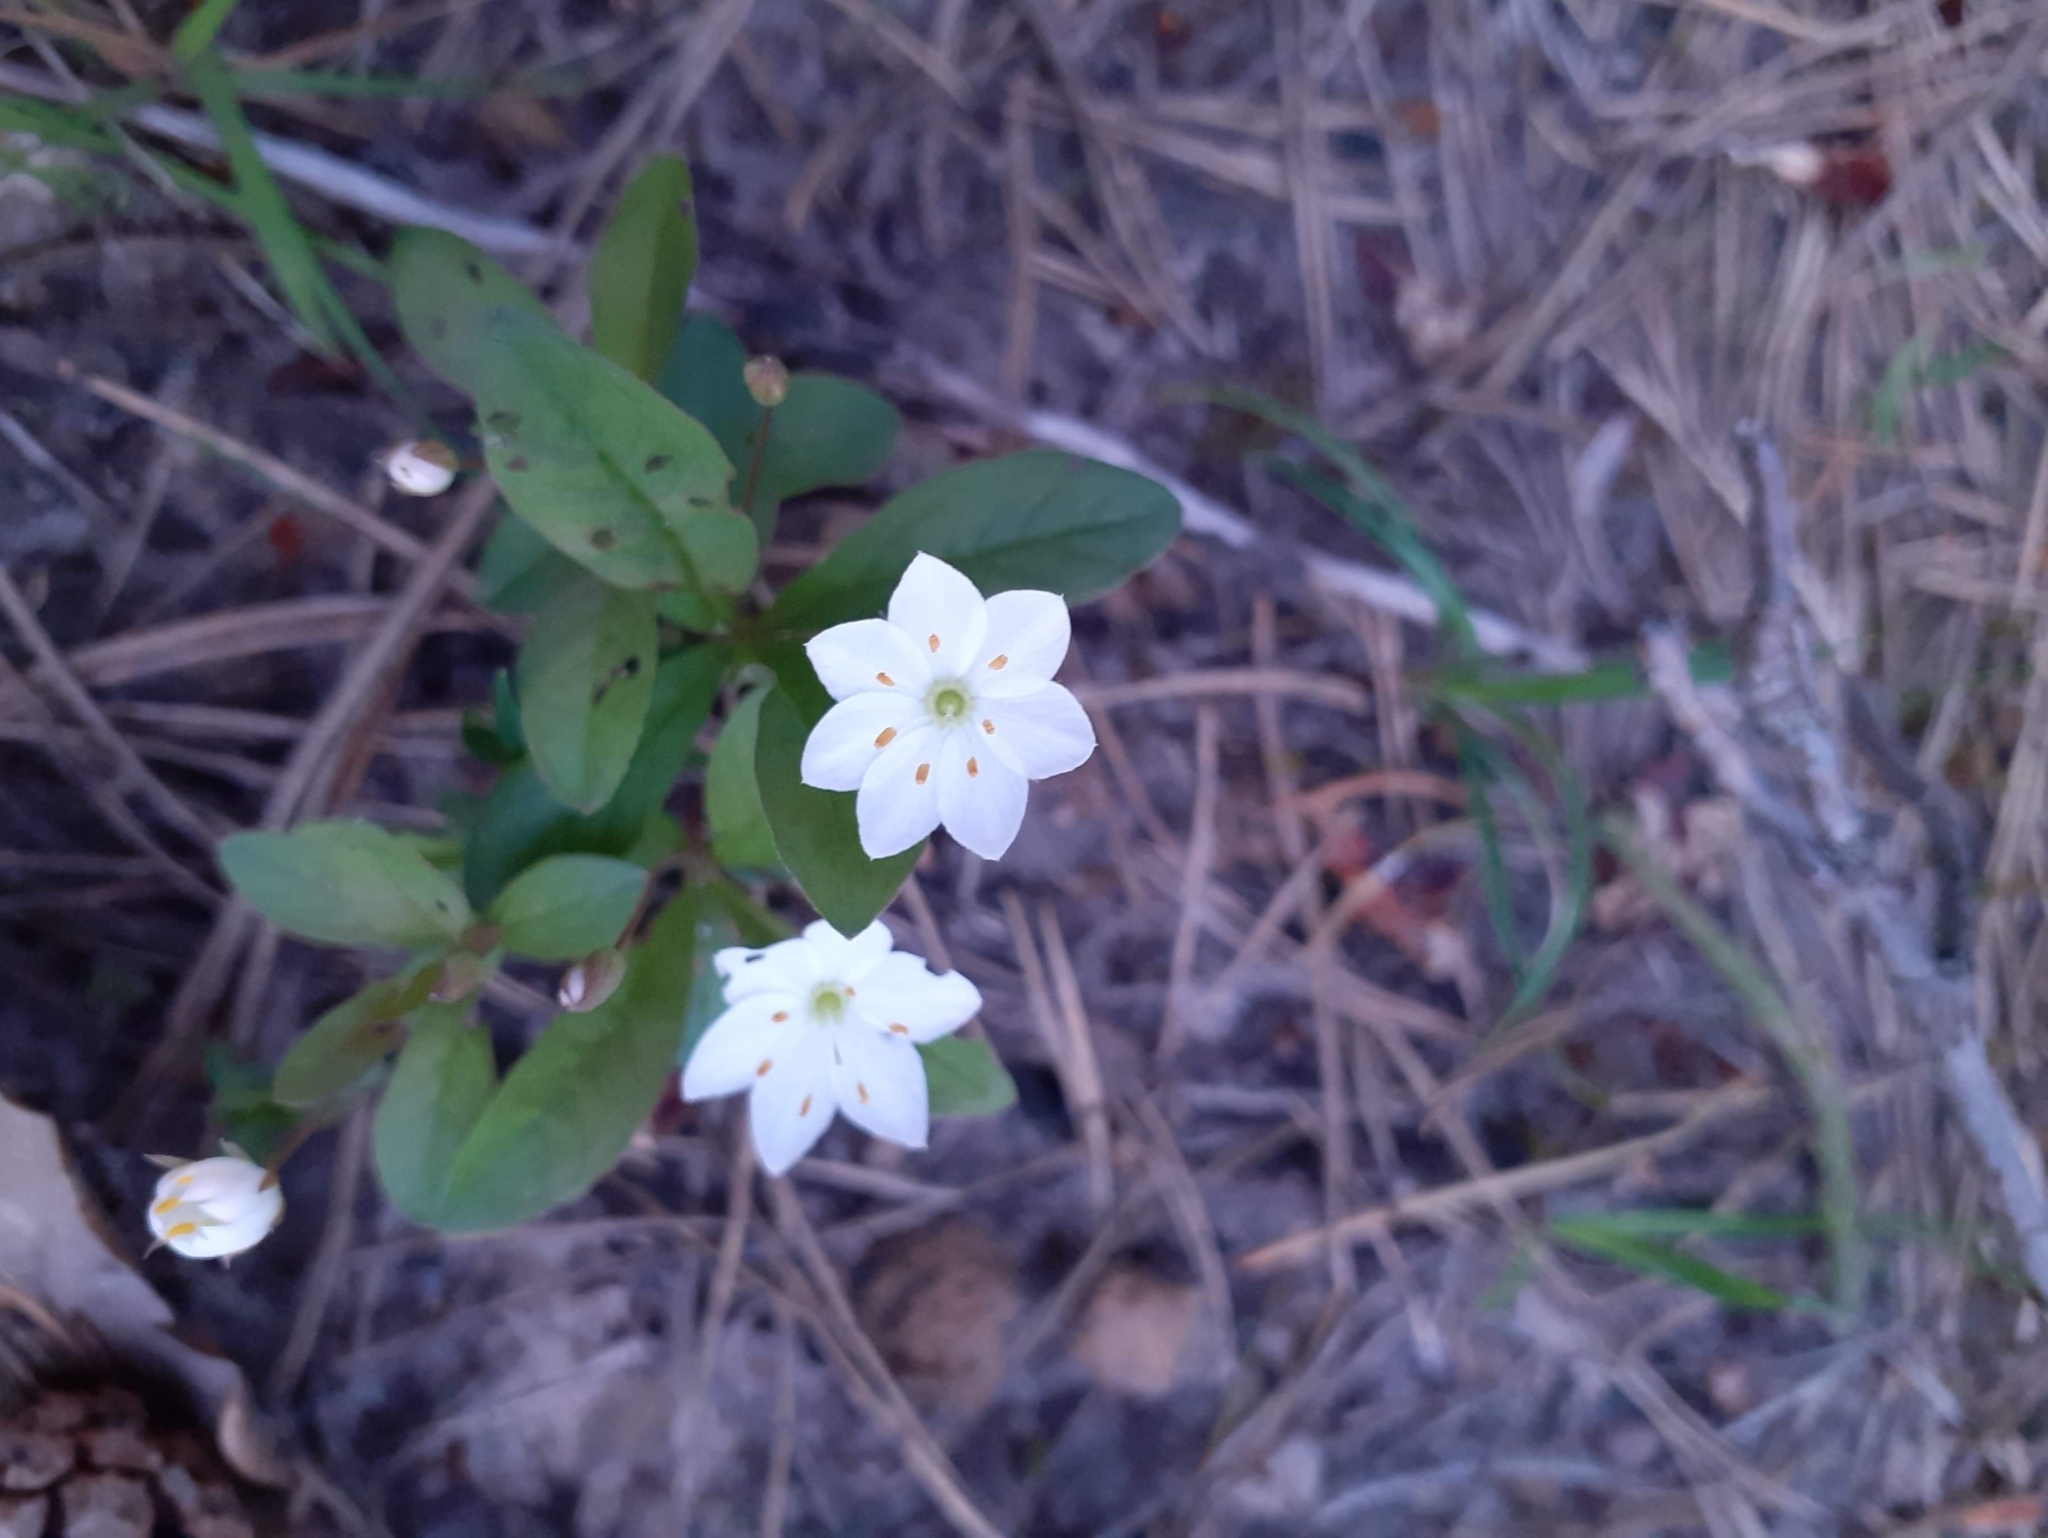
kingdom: Plantae
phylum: Tracheophyta
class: Magnoliopsida
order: Ericales
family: Primulaceae
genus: Lysimachia
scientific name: Lysimachia europaea
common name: Arctic starflower
